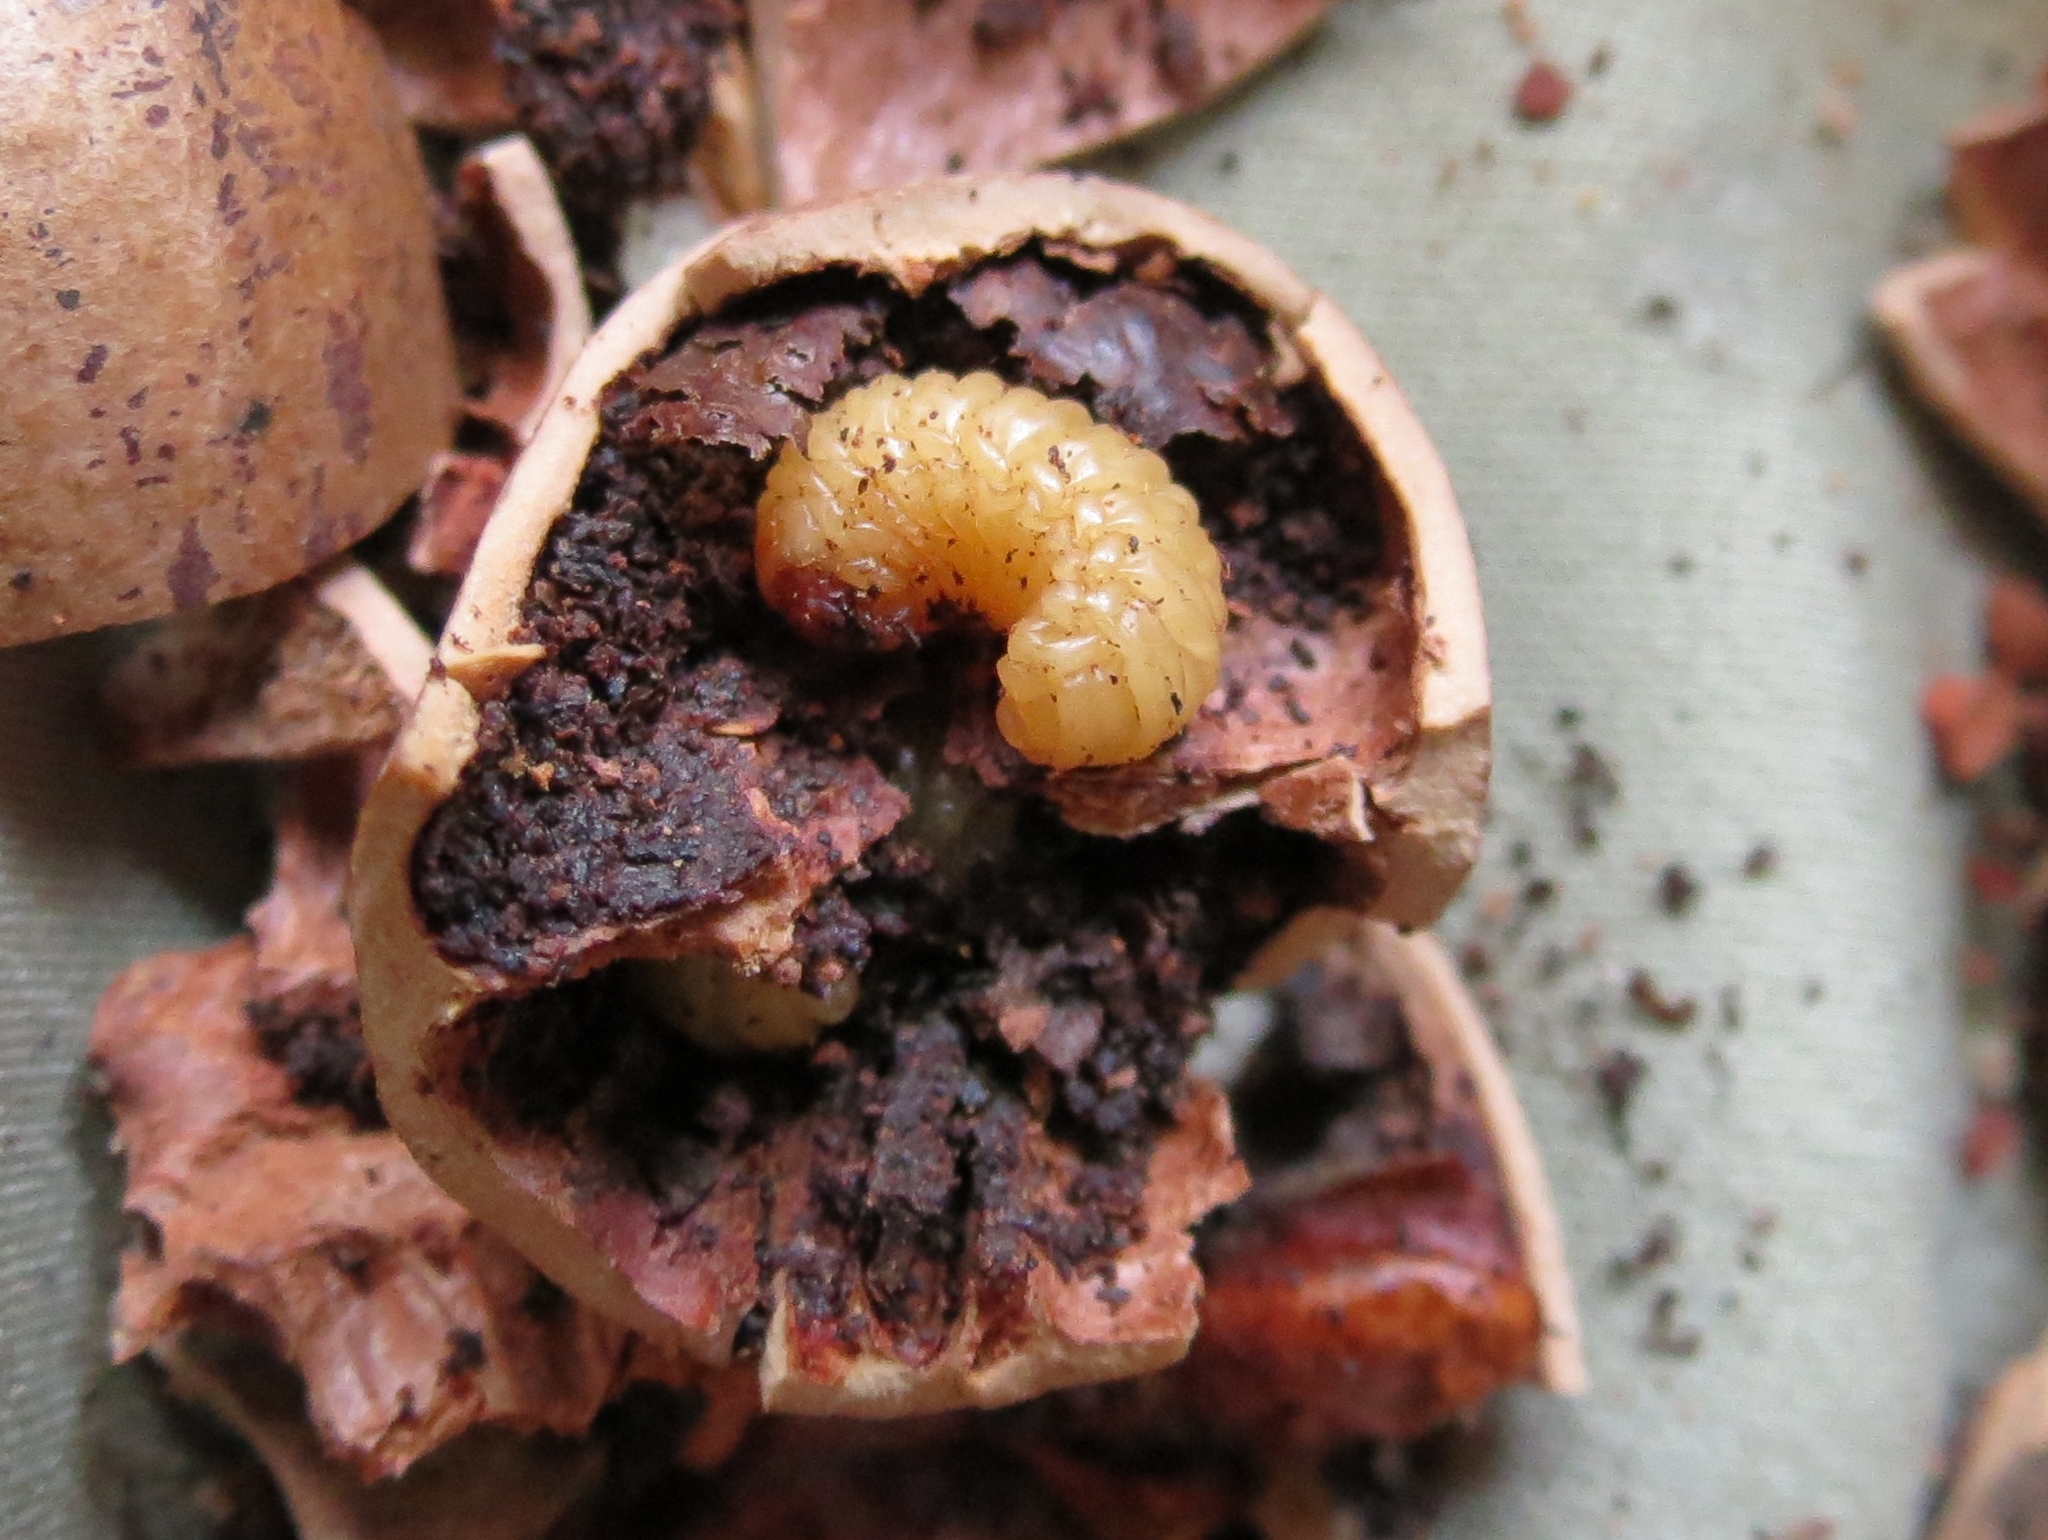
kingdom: Animalia
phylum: Arthropoda
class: Insecta
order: Coleoptera
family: Curculionidae
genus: Curculio
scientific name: Curculio caryae
